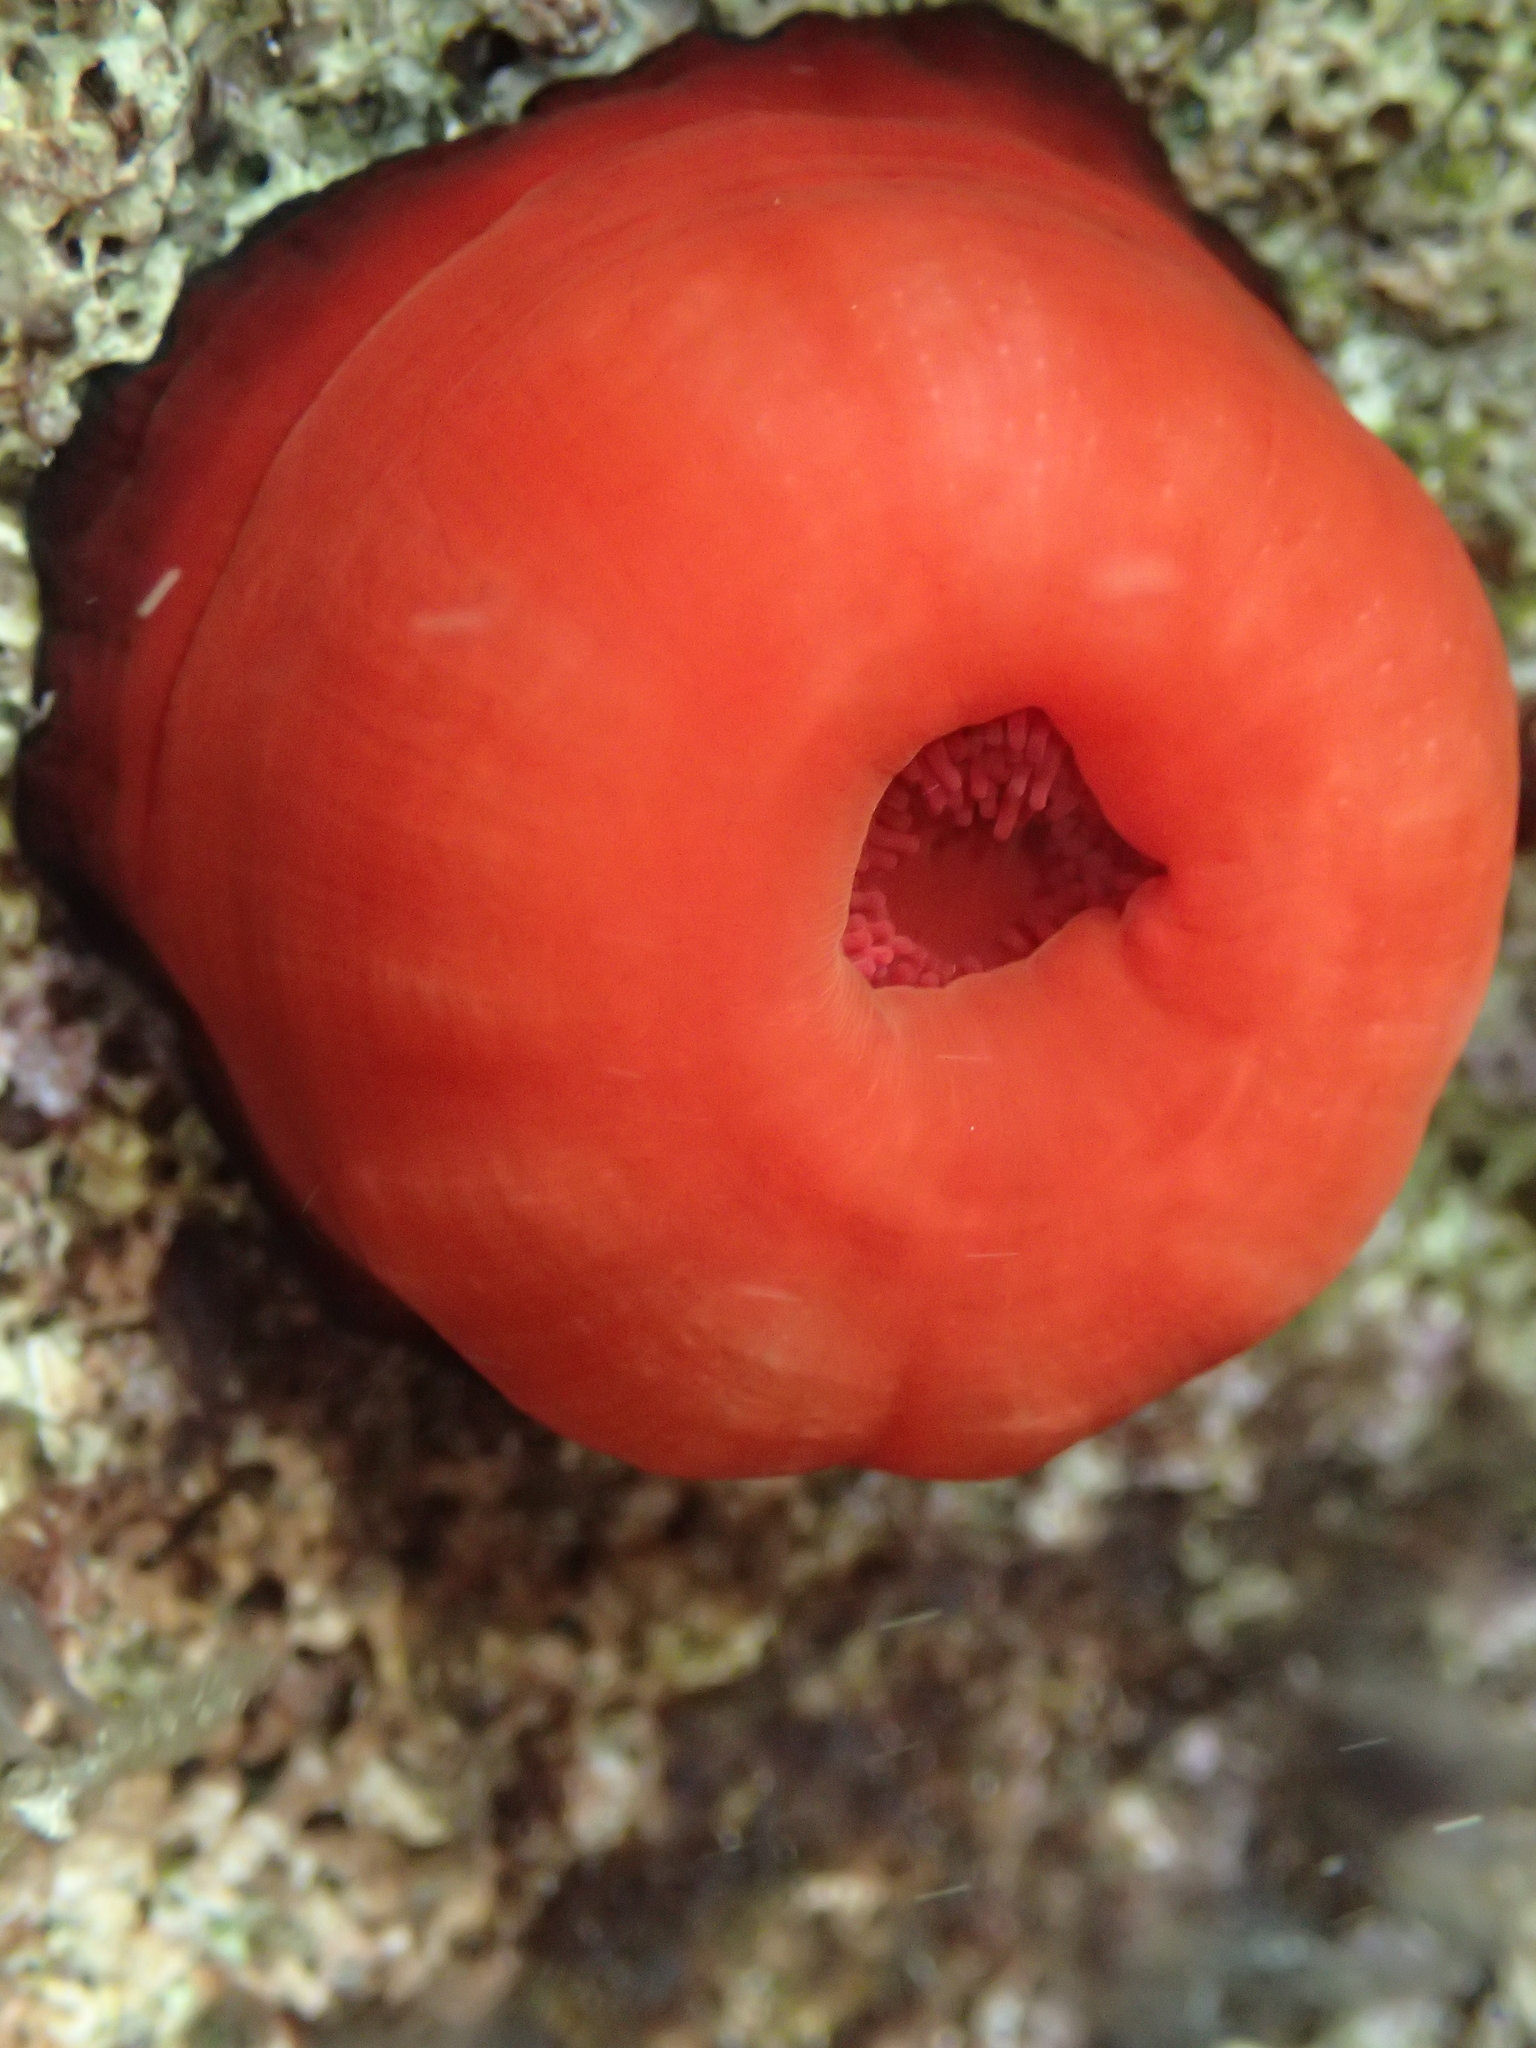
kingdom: Animalia
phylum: Cnidaria
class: Anthozoa
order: Actiniaria
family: Actiniidae
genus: Actinia
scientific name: Actinia mediterranea
